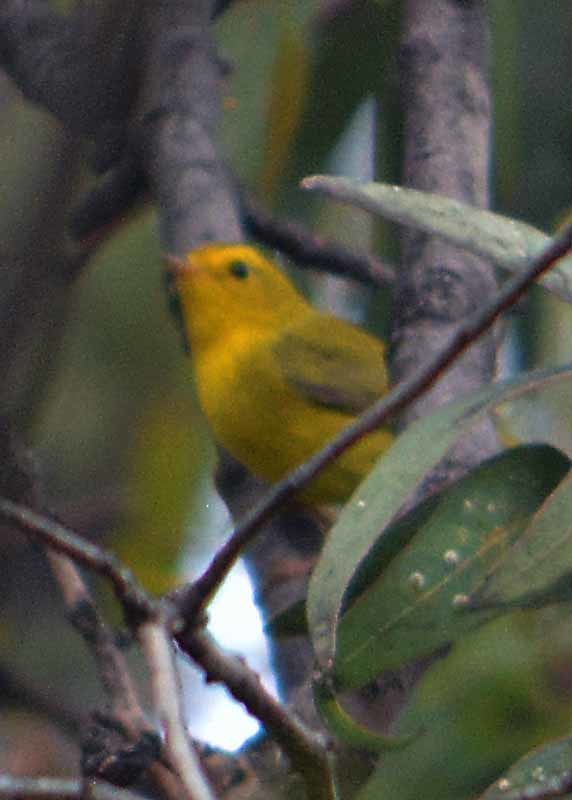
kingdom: Animalia
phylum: Chordata
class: Aves
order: Passeriformes
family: Parulidae
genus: Cardellina
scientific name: Cardellina pusilla
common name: Wilson's warbler
